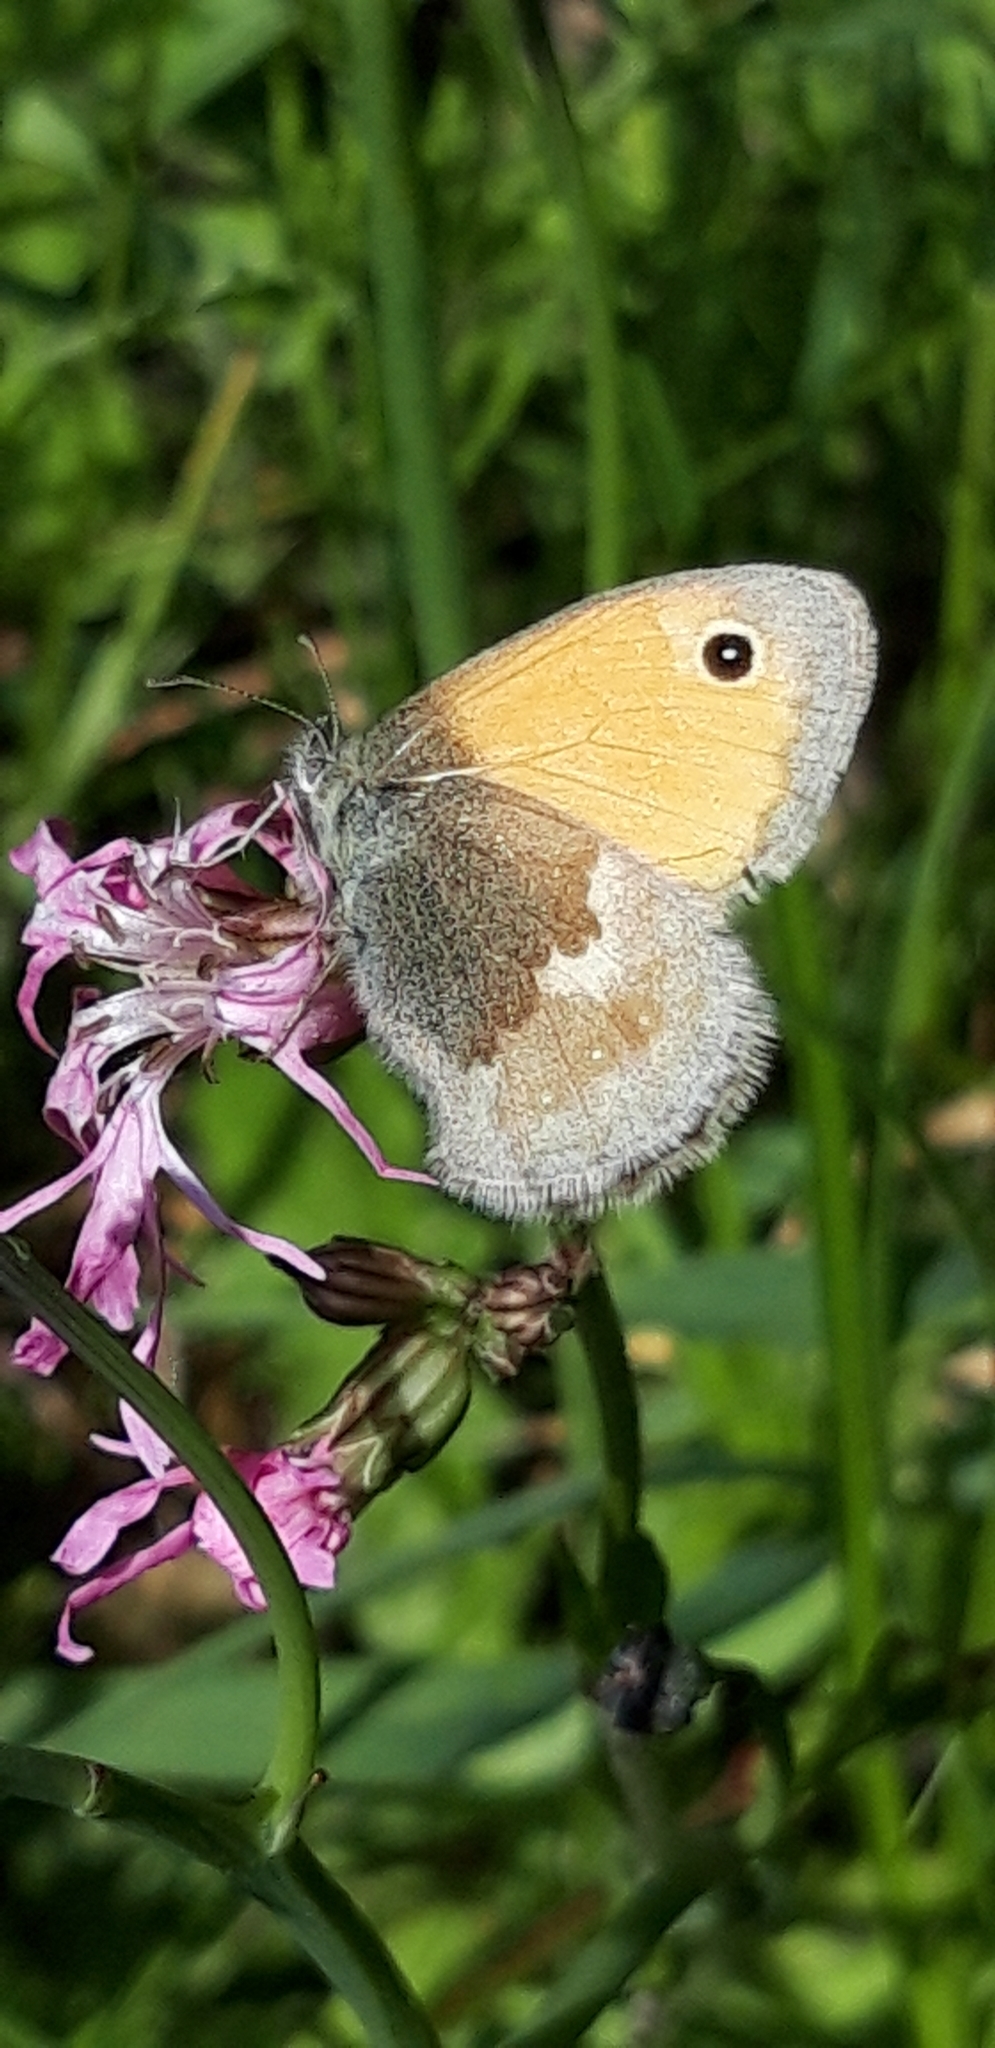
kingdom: Animalia
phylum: Arthropoda
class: Insecta
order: Lepidoptera
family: Nymphalidae
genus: Coenonympha
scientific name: Coenonympha pamphilus
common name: Small heath
